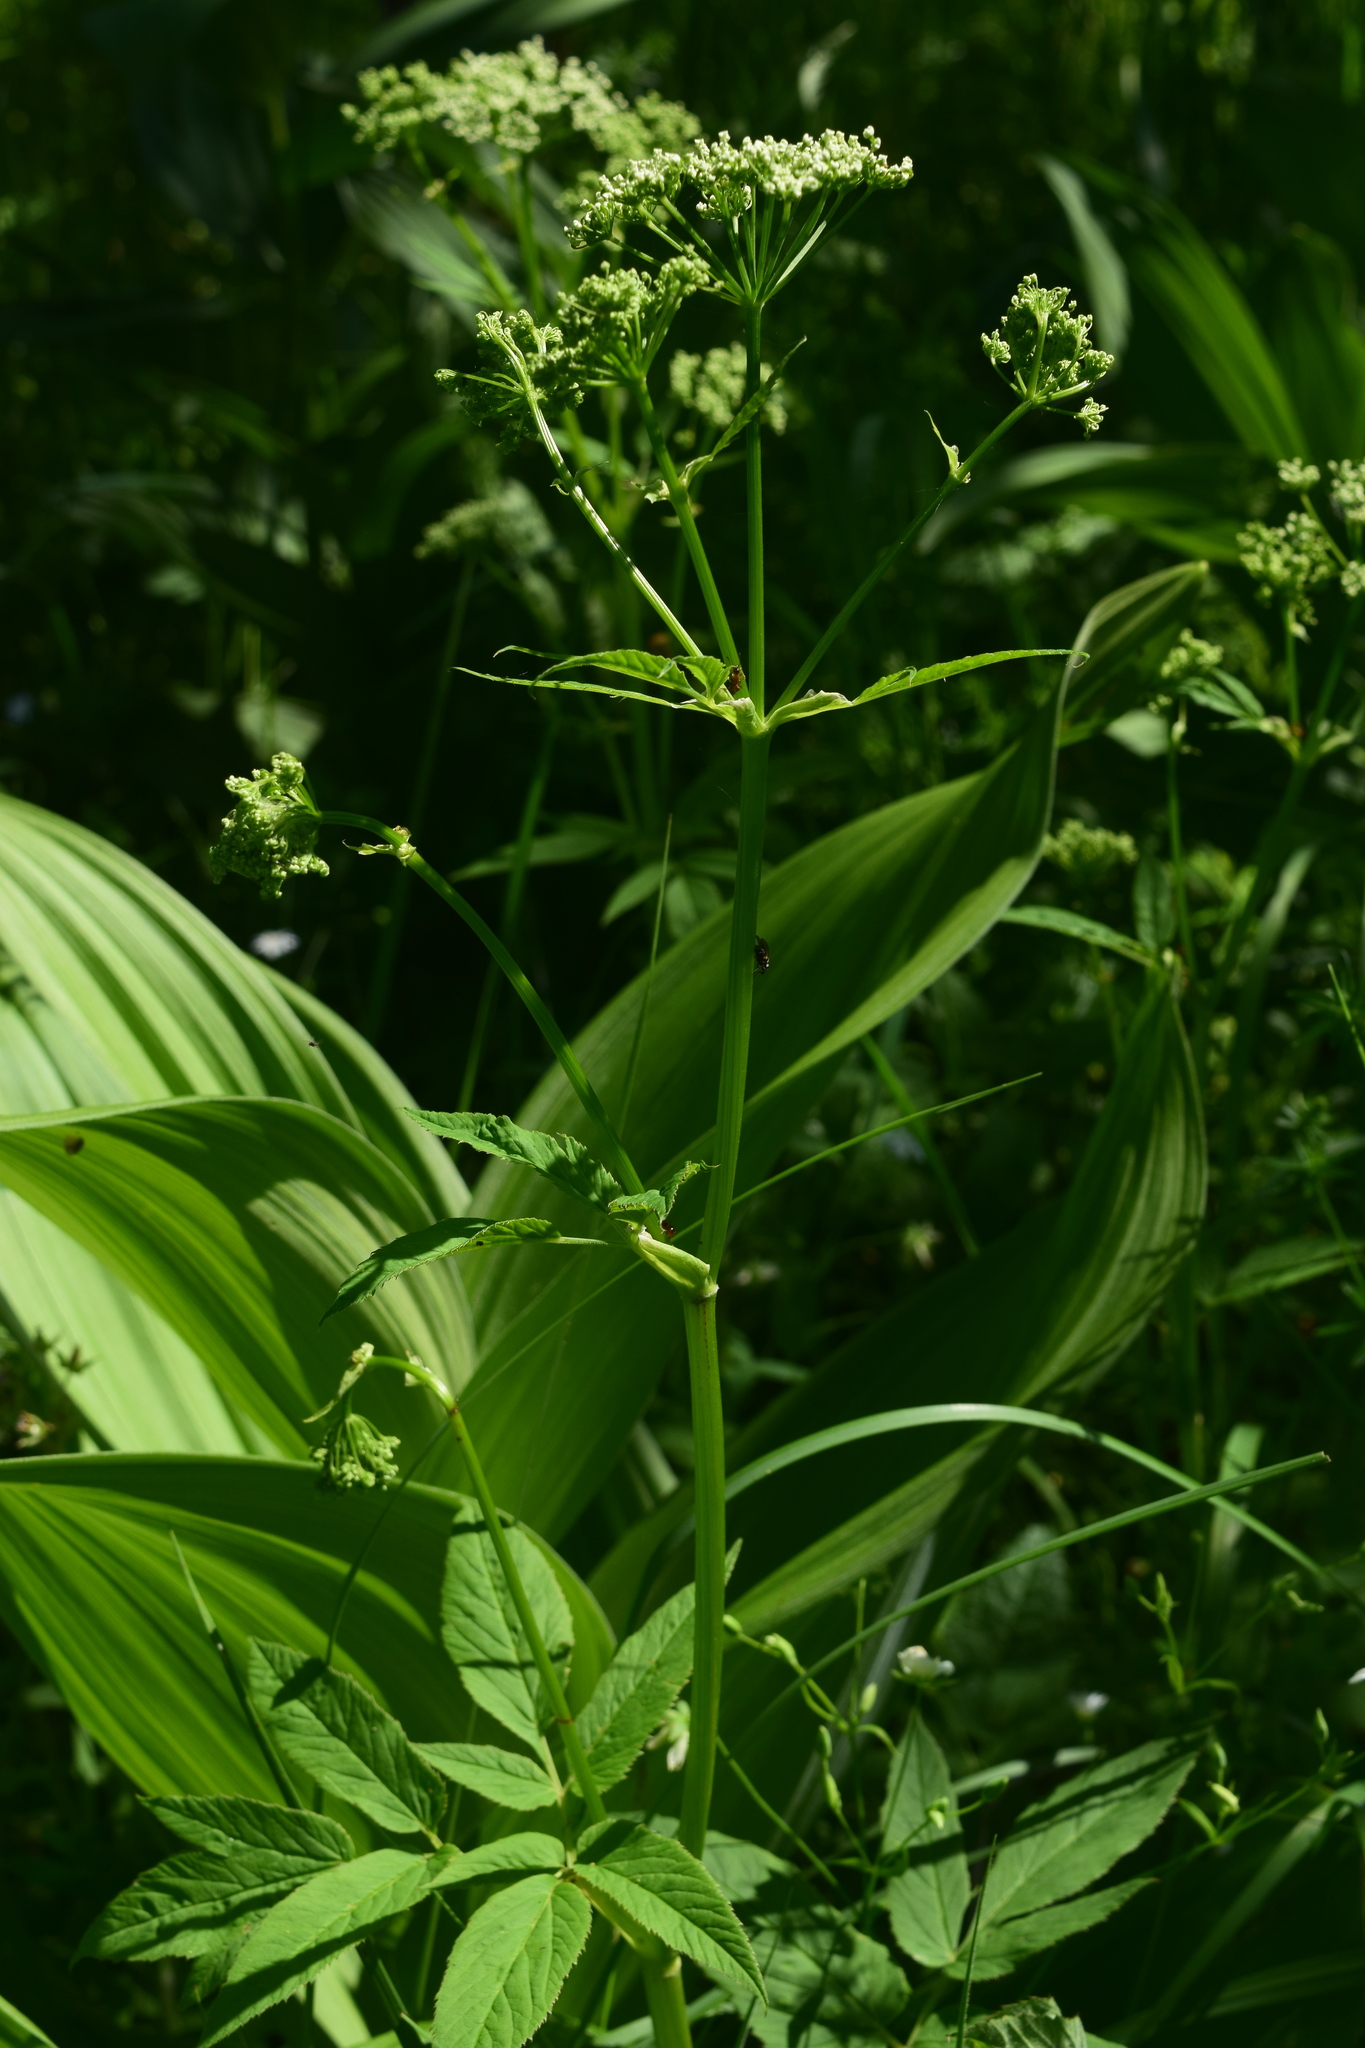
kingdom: Plantae
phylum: Tracheophyta
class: Magnoliopsida
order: Apiales
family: Apiaceae
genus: Aegopodium
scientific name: Aegopodium podagraria
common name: Ground-elder
